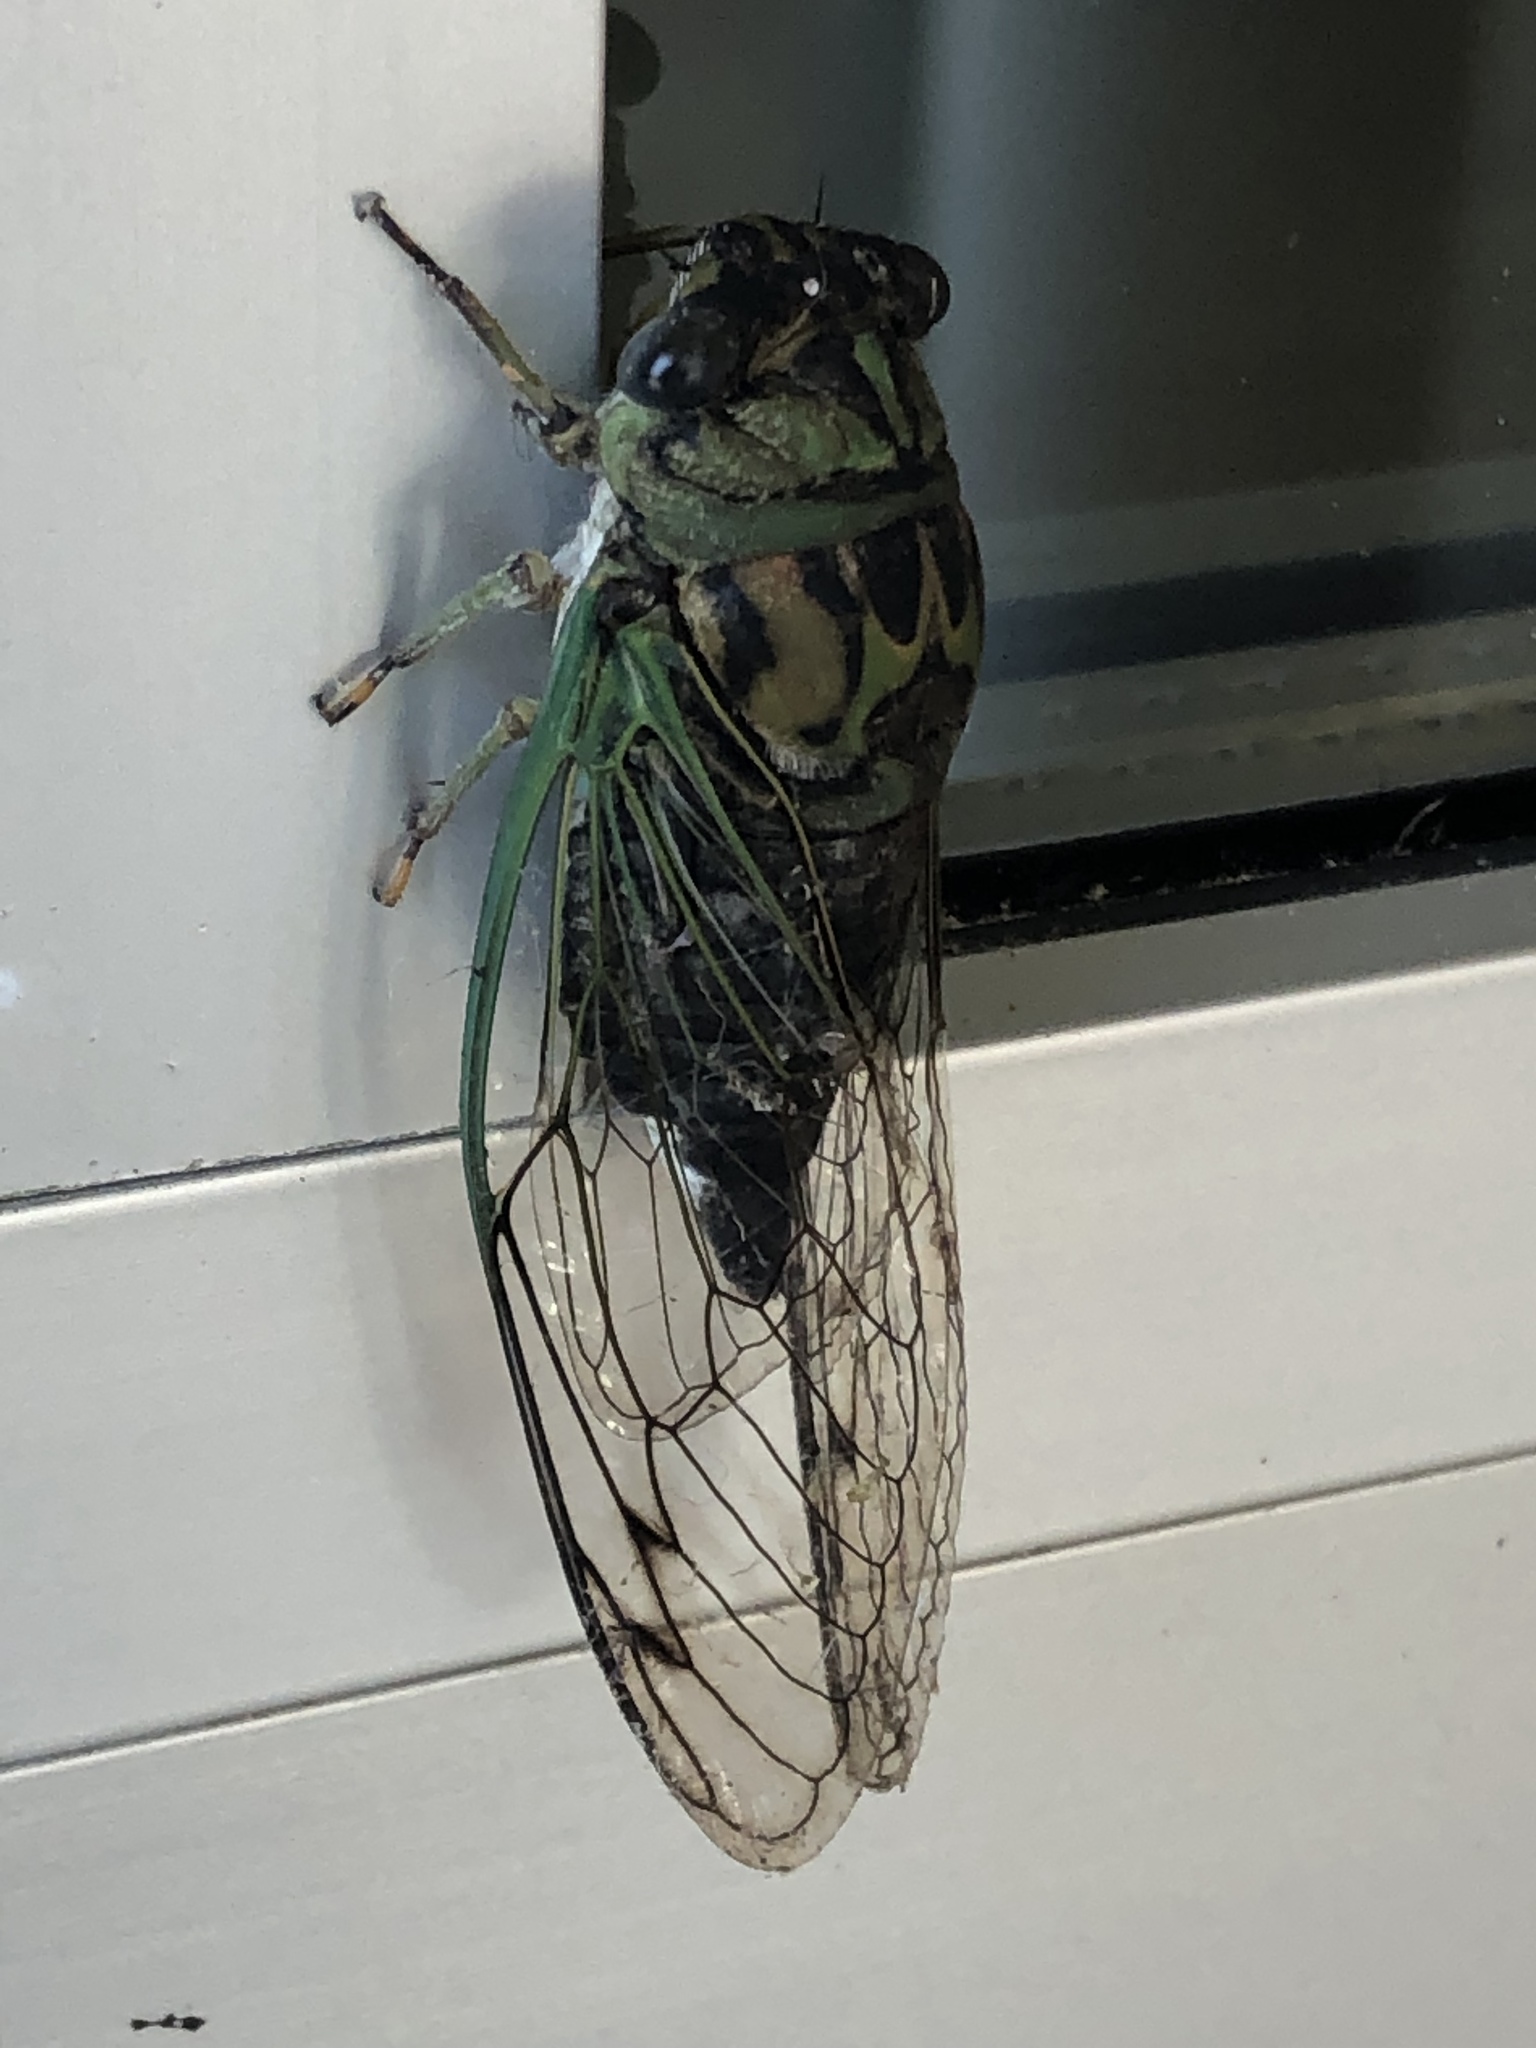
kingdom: Animalia
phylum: Arthropoda
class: Insecta
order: Hemiptera
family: Cicadidae
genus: Neotibicen
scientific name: Neotibicen linnei
